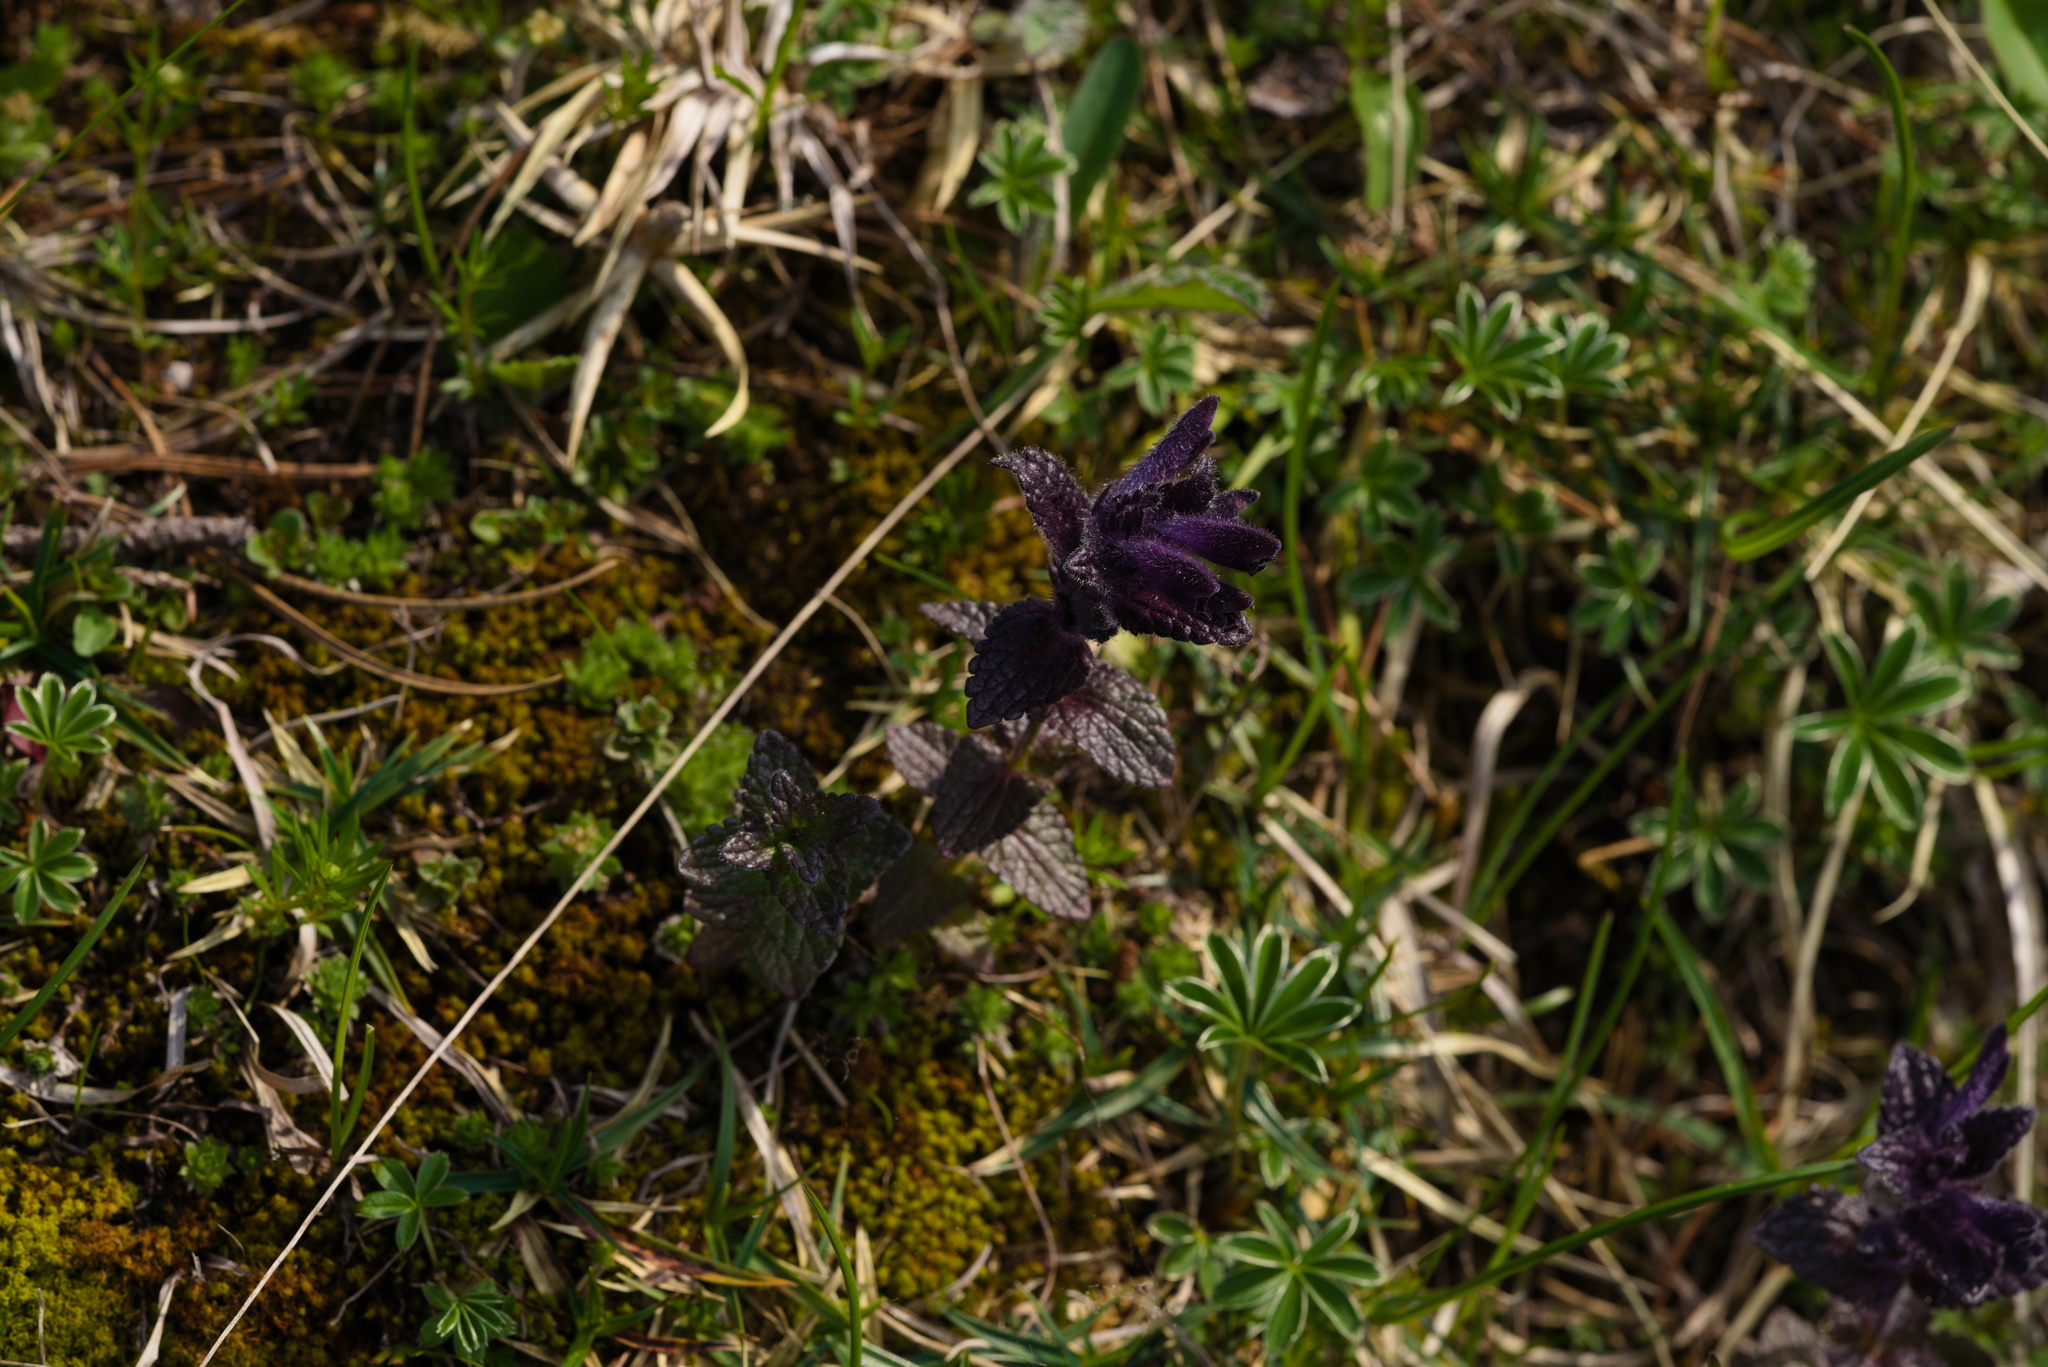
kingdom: Plantae
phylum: Tracheophyta
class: Magnoliopsida
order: Lamiales
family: Orobanchaceae
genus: Bartsia
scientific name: Bartsia alpina
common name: Alpine bartsia
